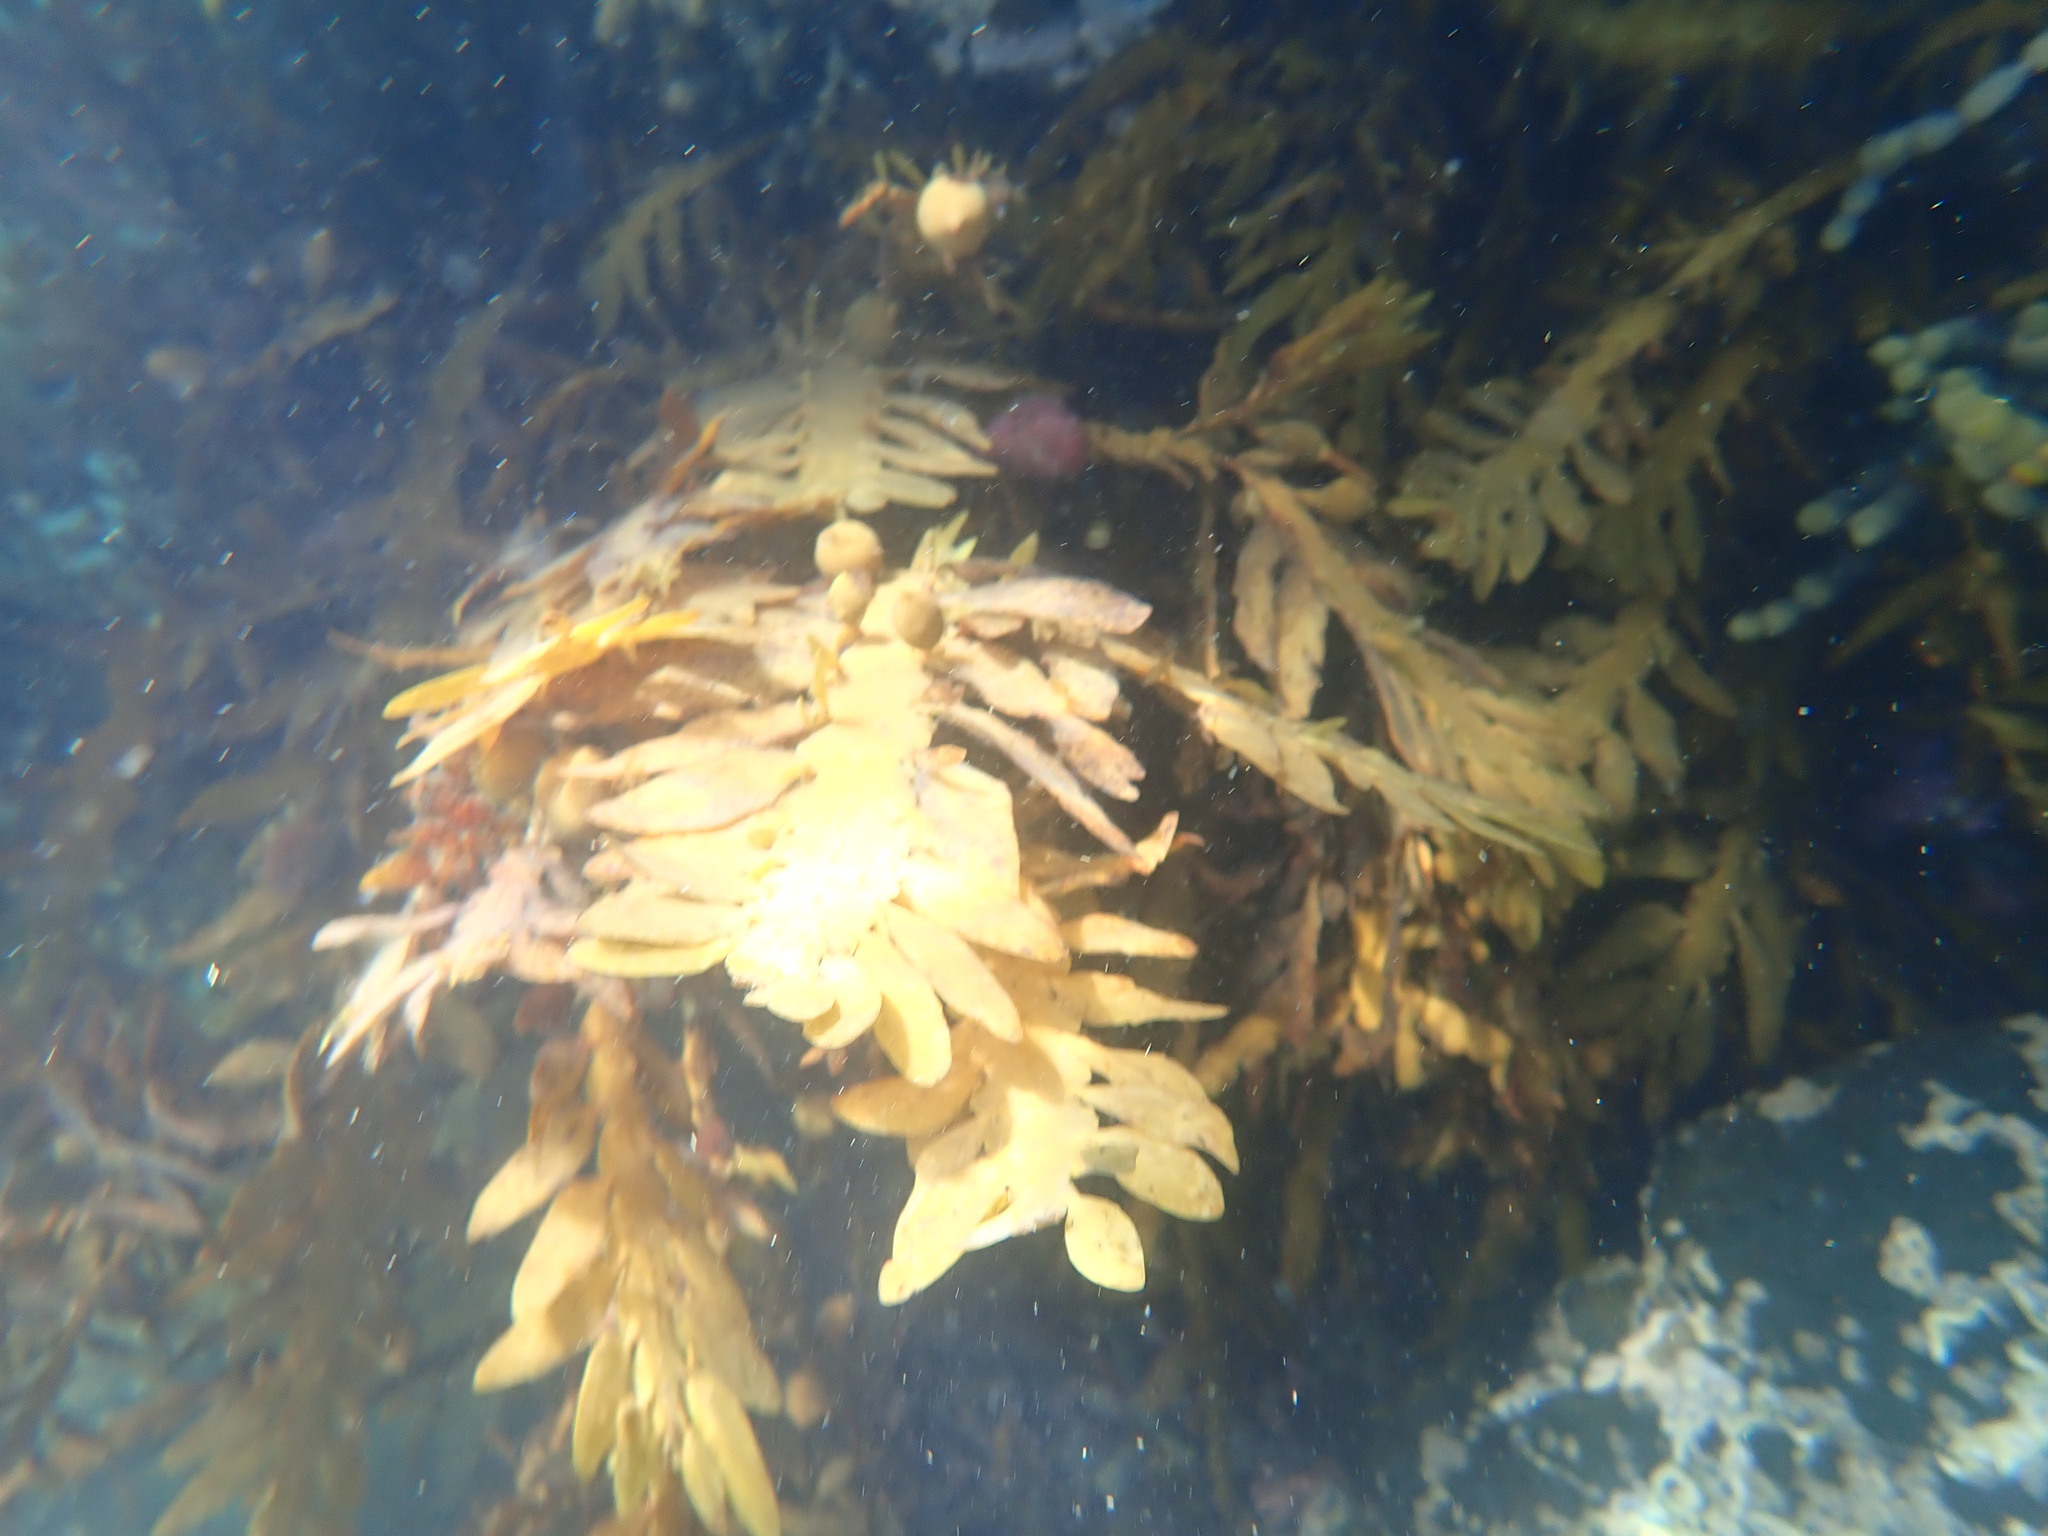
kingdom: Chromista
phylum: Ochrophyta
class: Phaeophyceae
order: Fucales
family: Sargassaceae
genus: Carpophyllum
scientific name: Carpophyllum maschalocarpum
